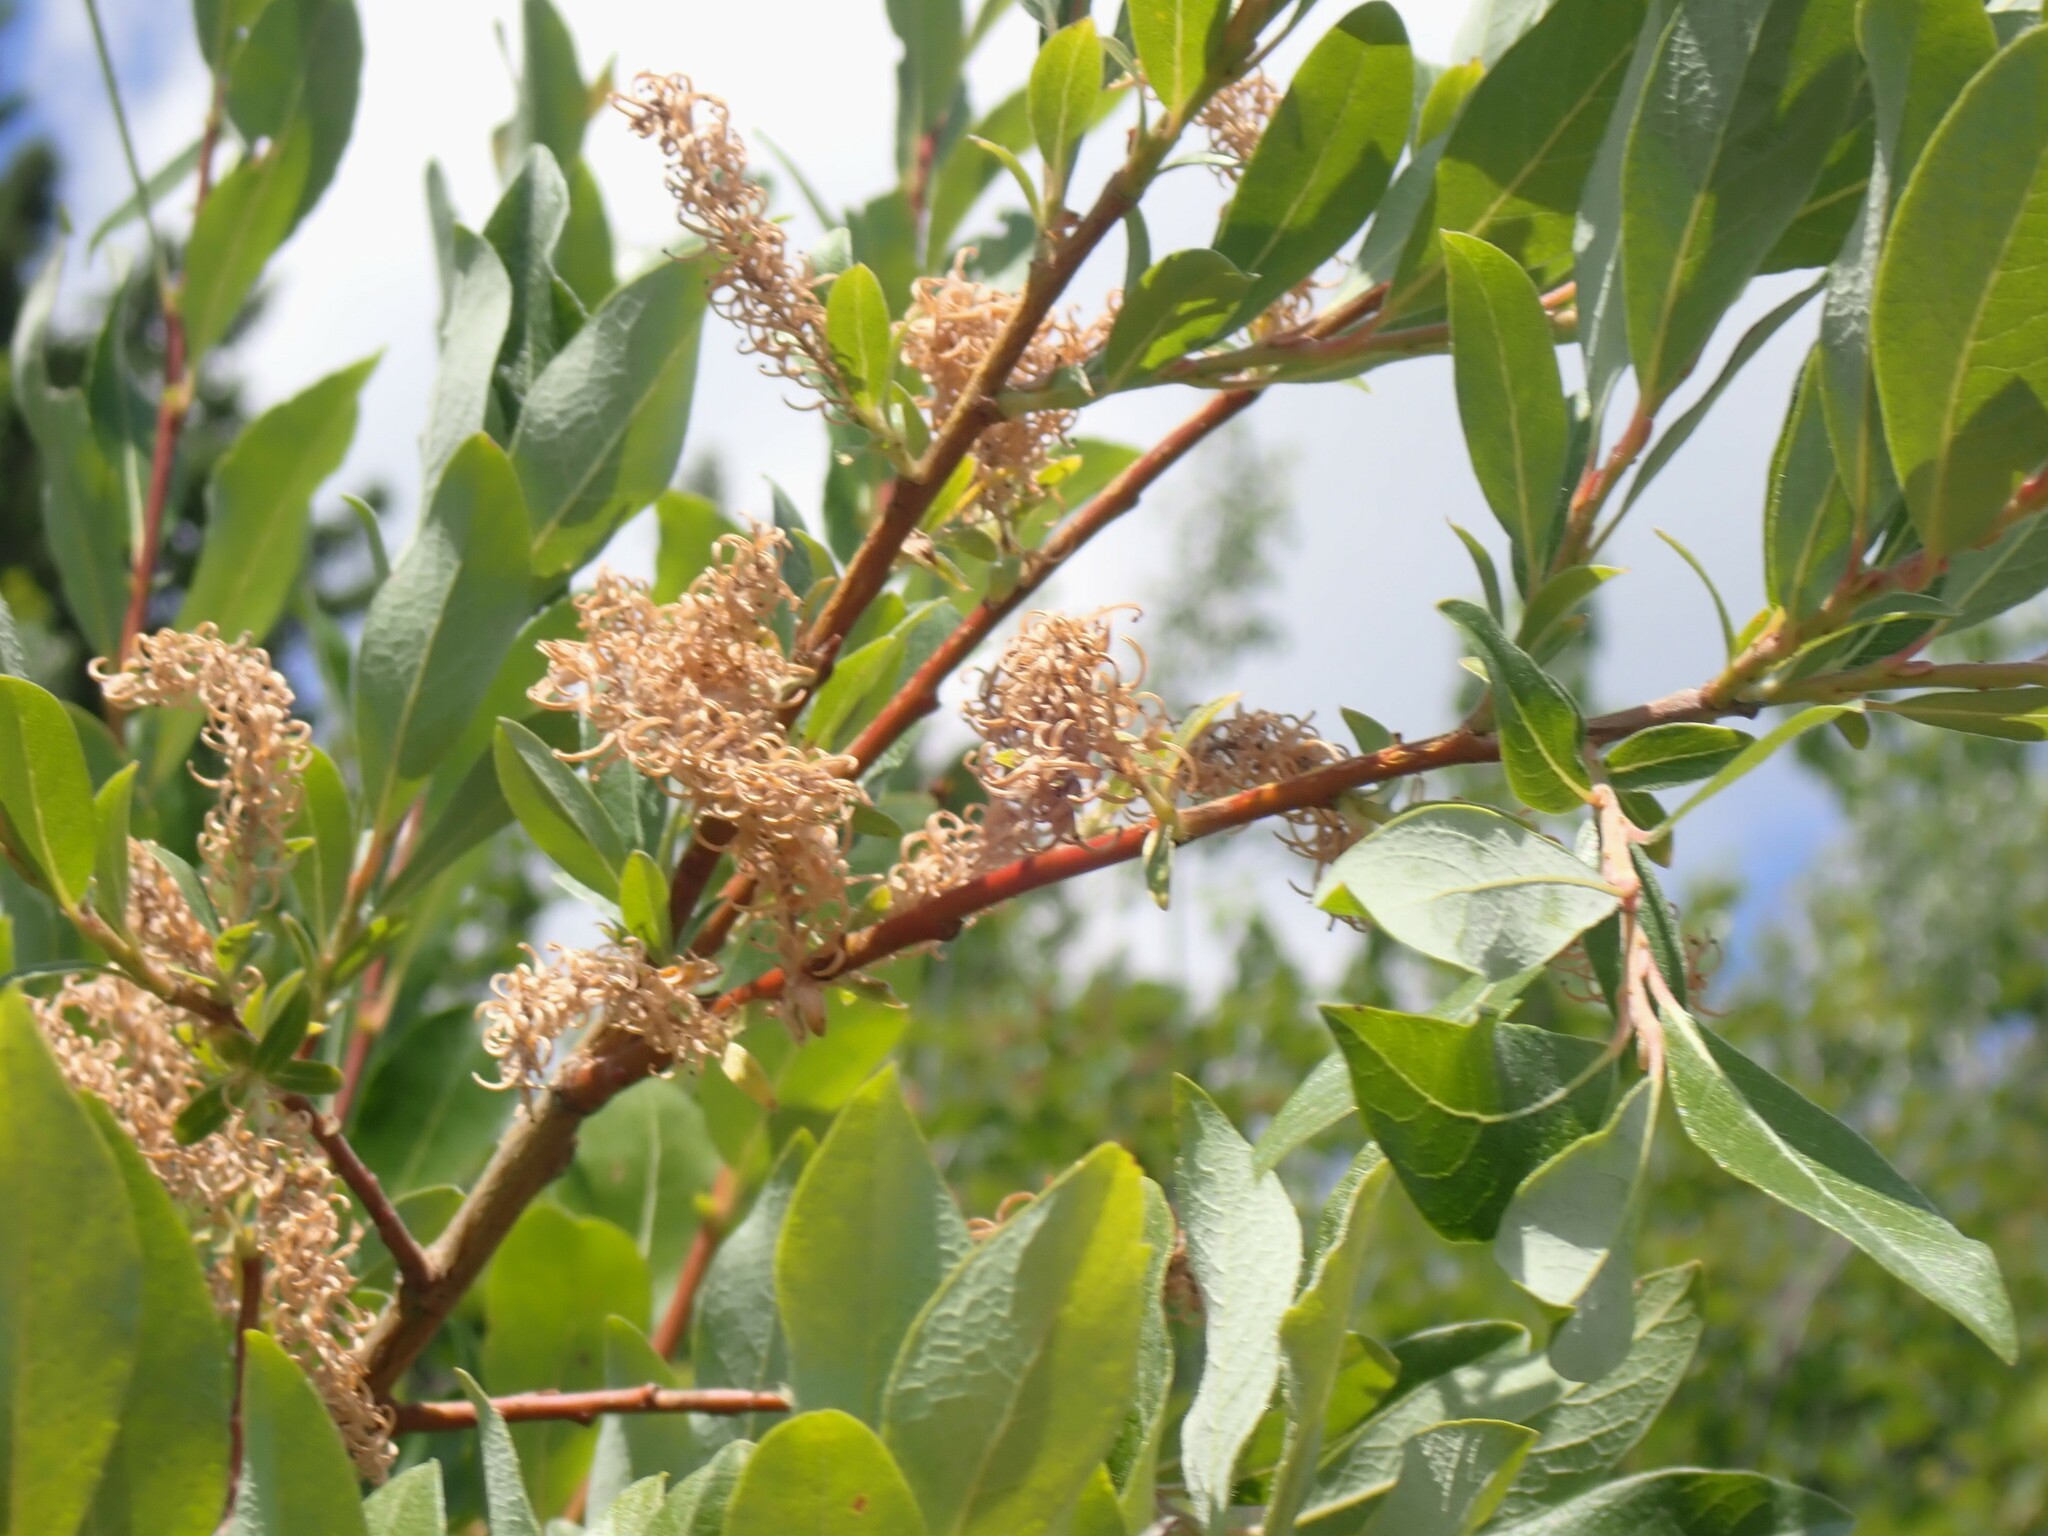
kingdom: Plantae
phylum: Tracheophyta
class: Magnoliopsida
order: Malpighiales
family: Salicaceae
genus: Salix
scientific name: Salix bebbiana
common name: Bebb's willow
